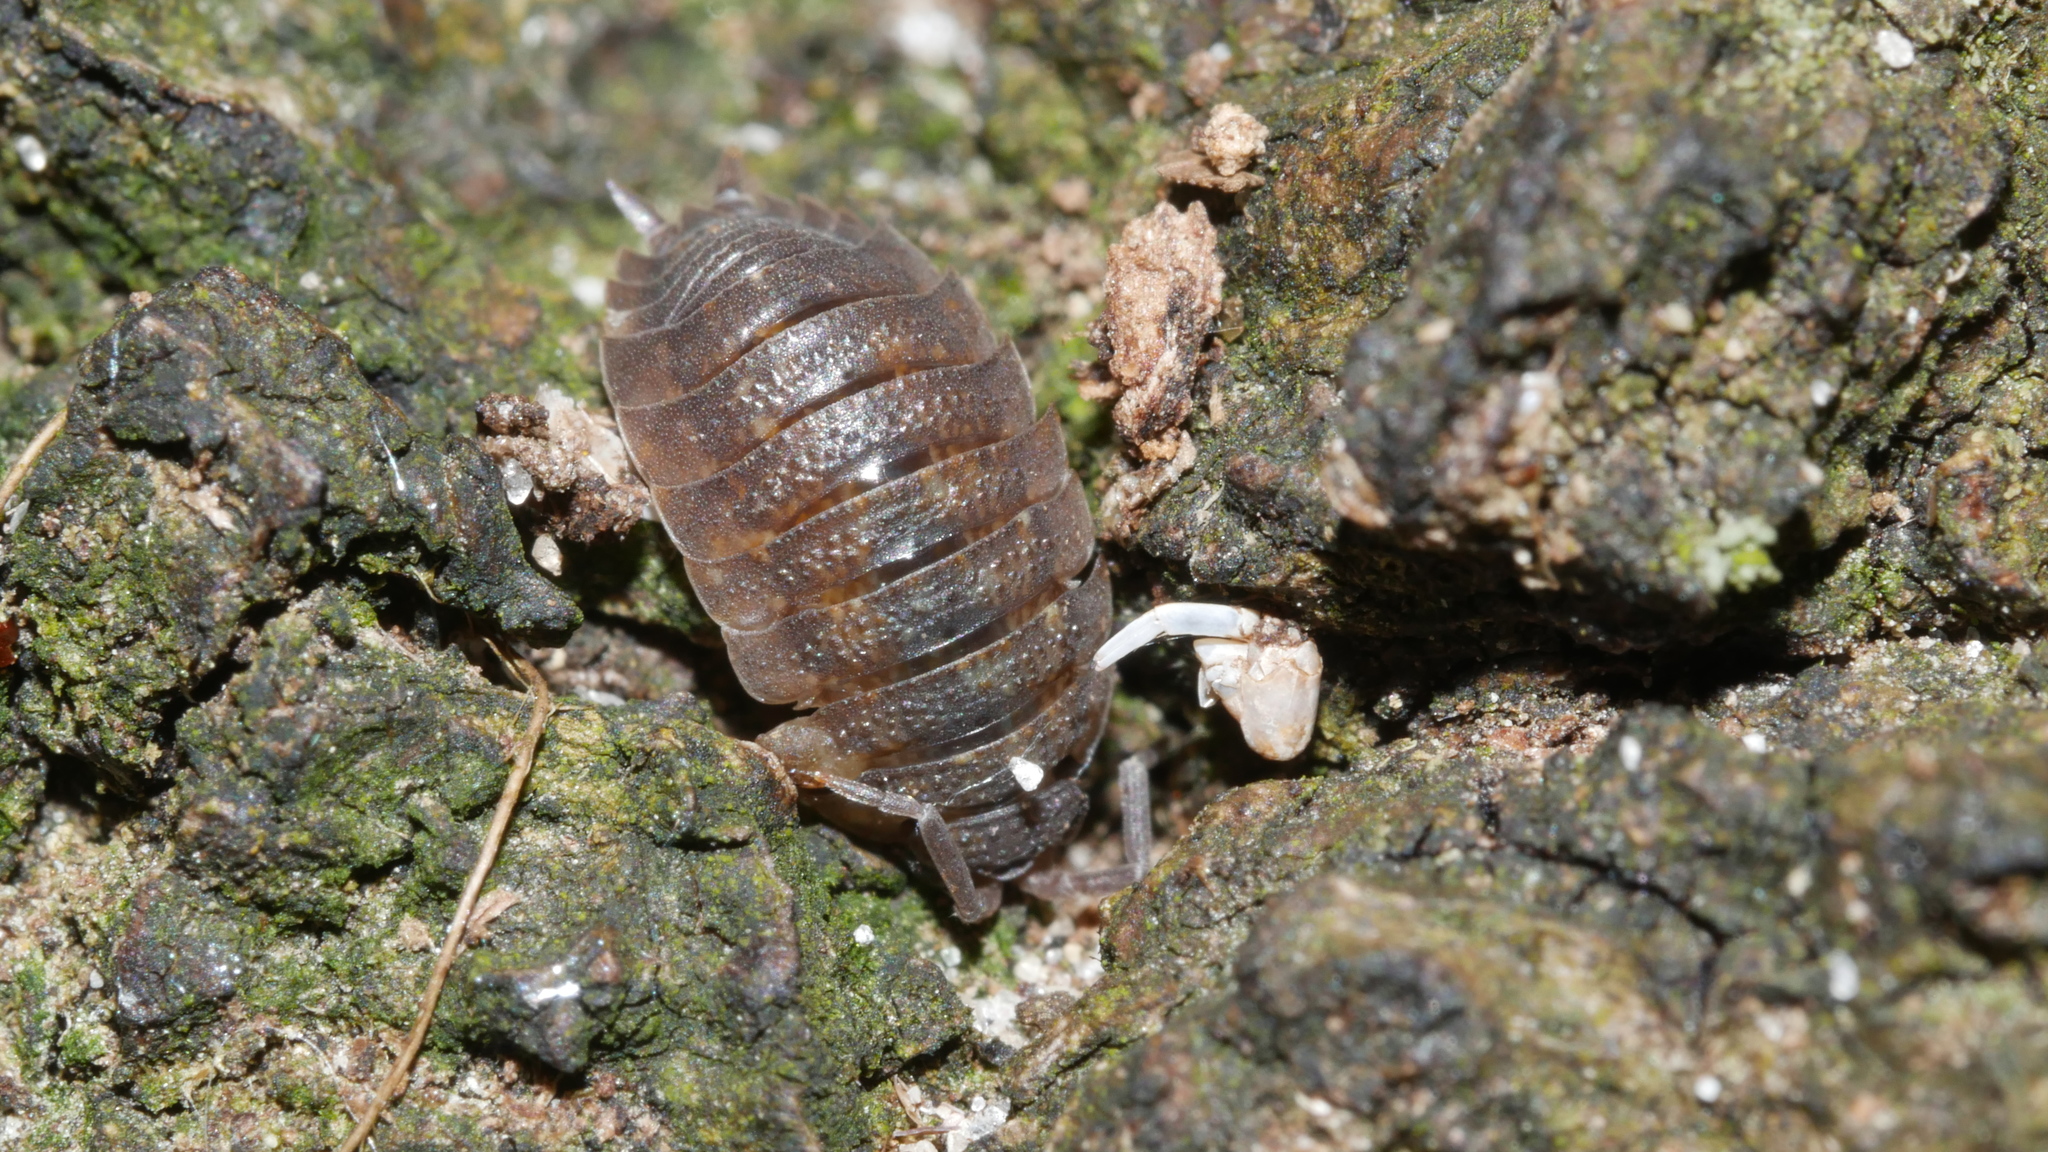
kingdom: Animalia
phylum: Arthropoda
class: Malacostraca
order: Isopoda
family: Porcellionidae
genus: Porcellio
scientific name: Porcellio scaber
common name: Common rough woodlouse
